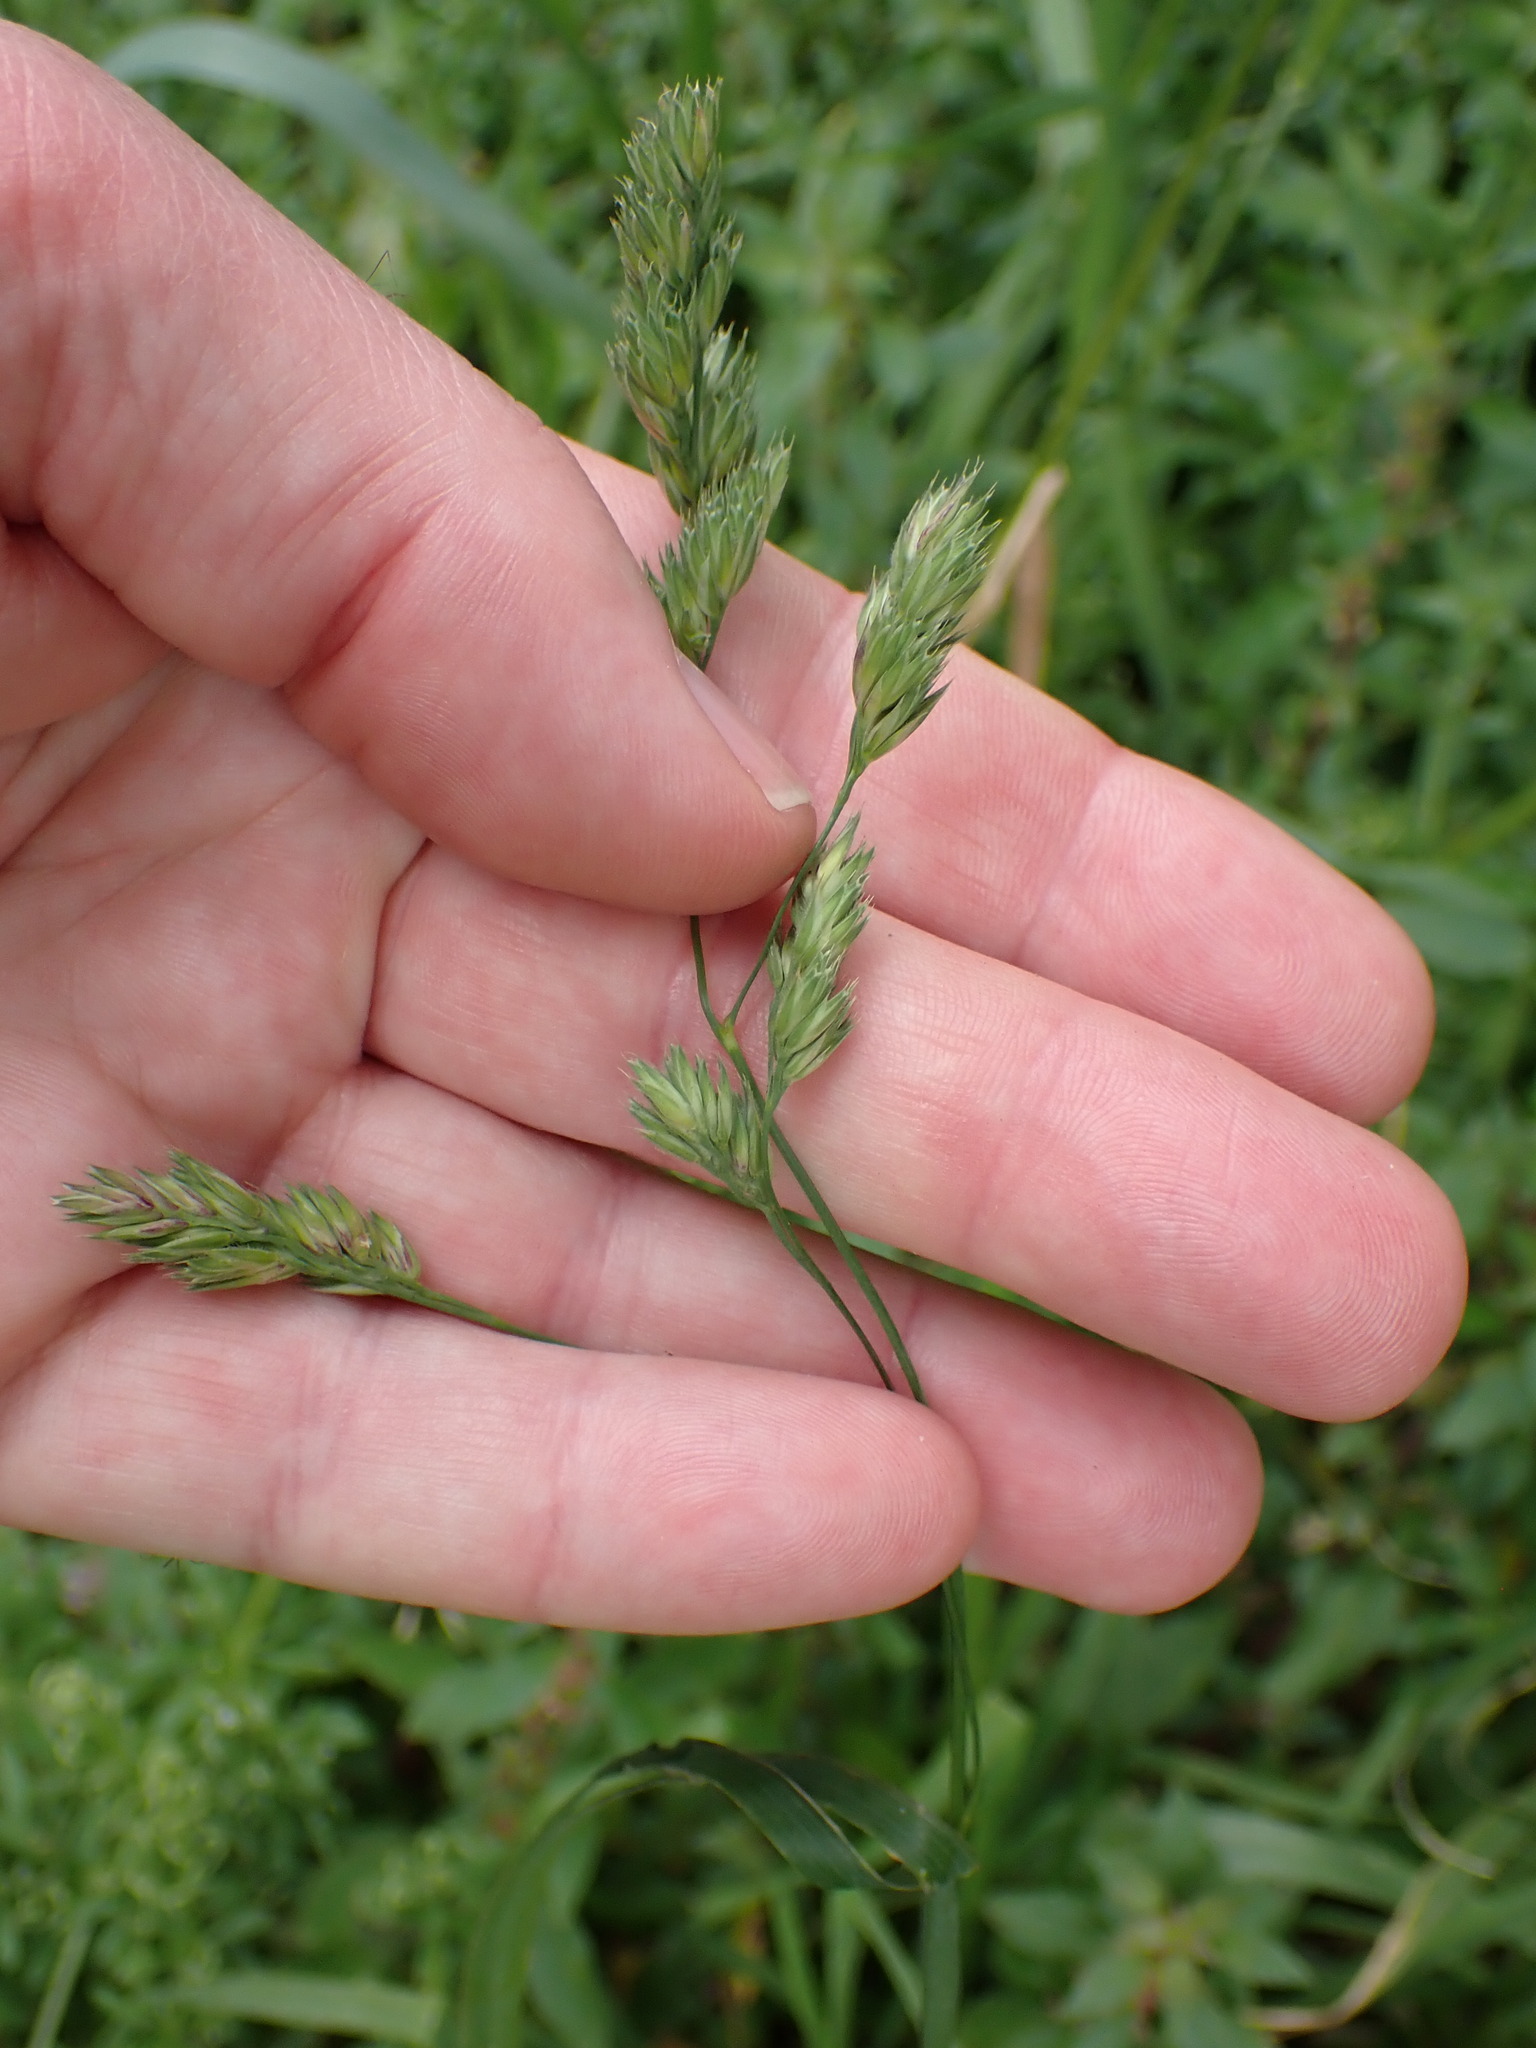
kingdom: Plantae
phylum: Tracheophyta
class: Liliopsida
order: Poales
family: Poaceae
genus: Dactylis
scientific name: Dactylis glomerata
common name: Orchardgrass
